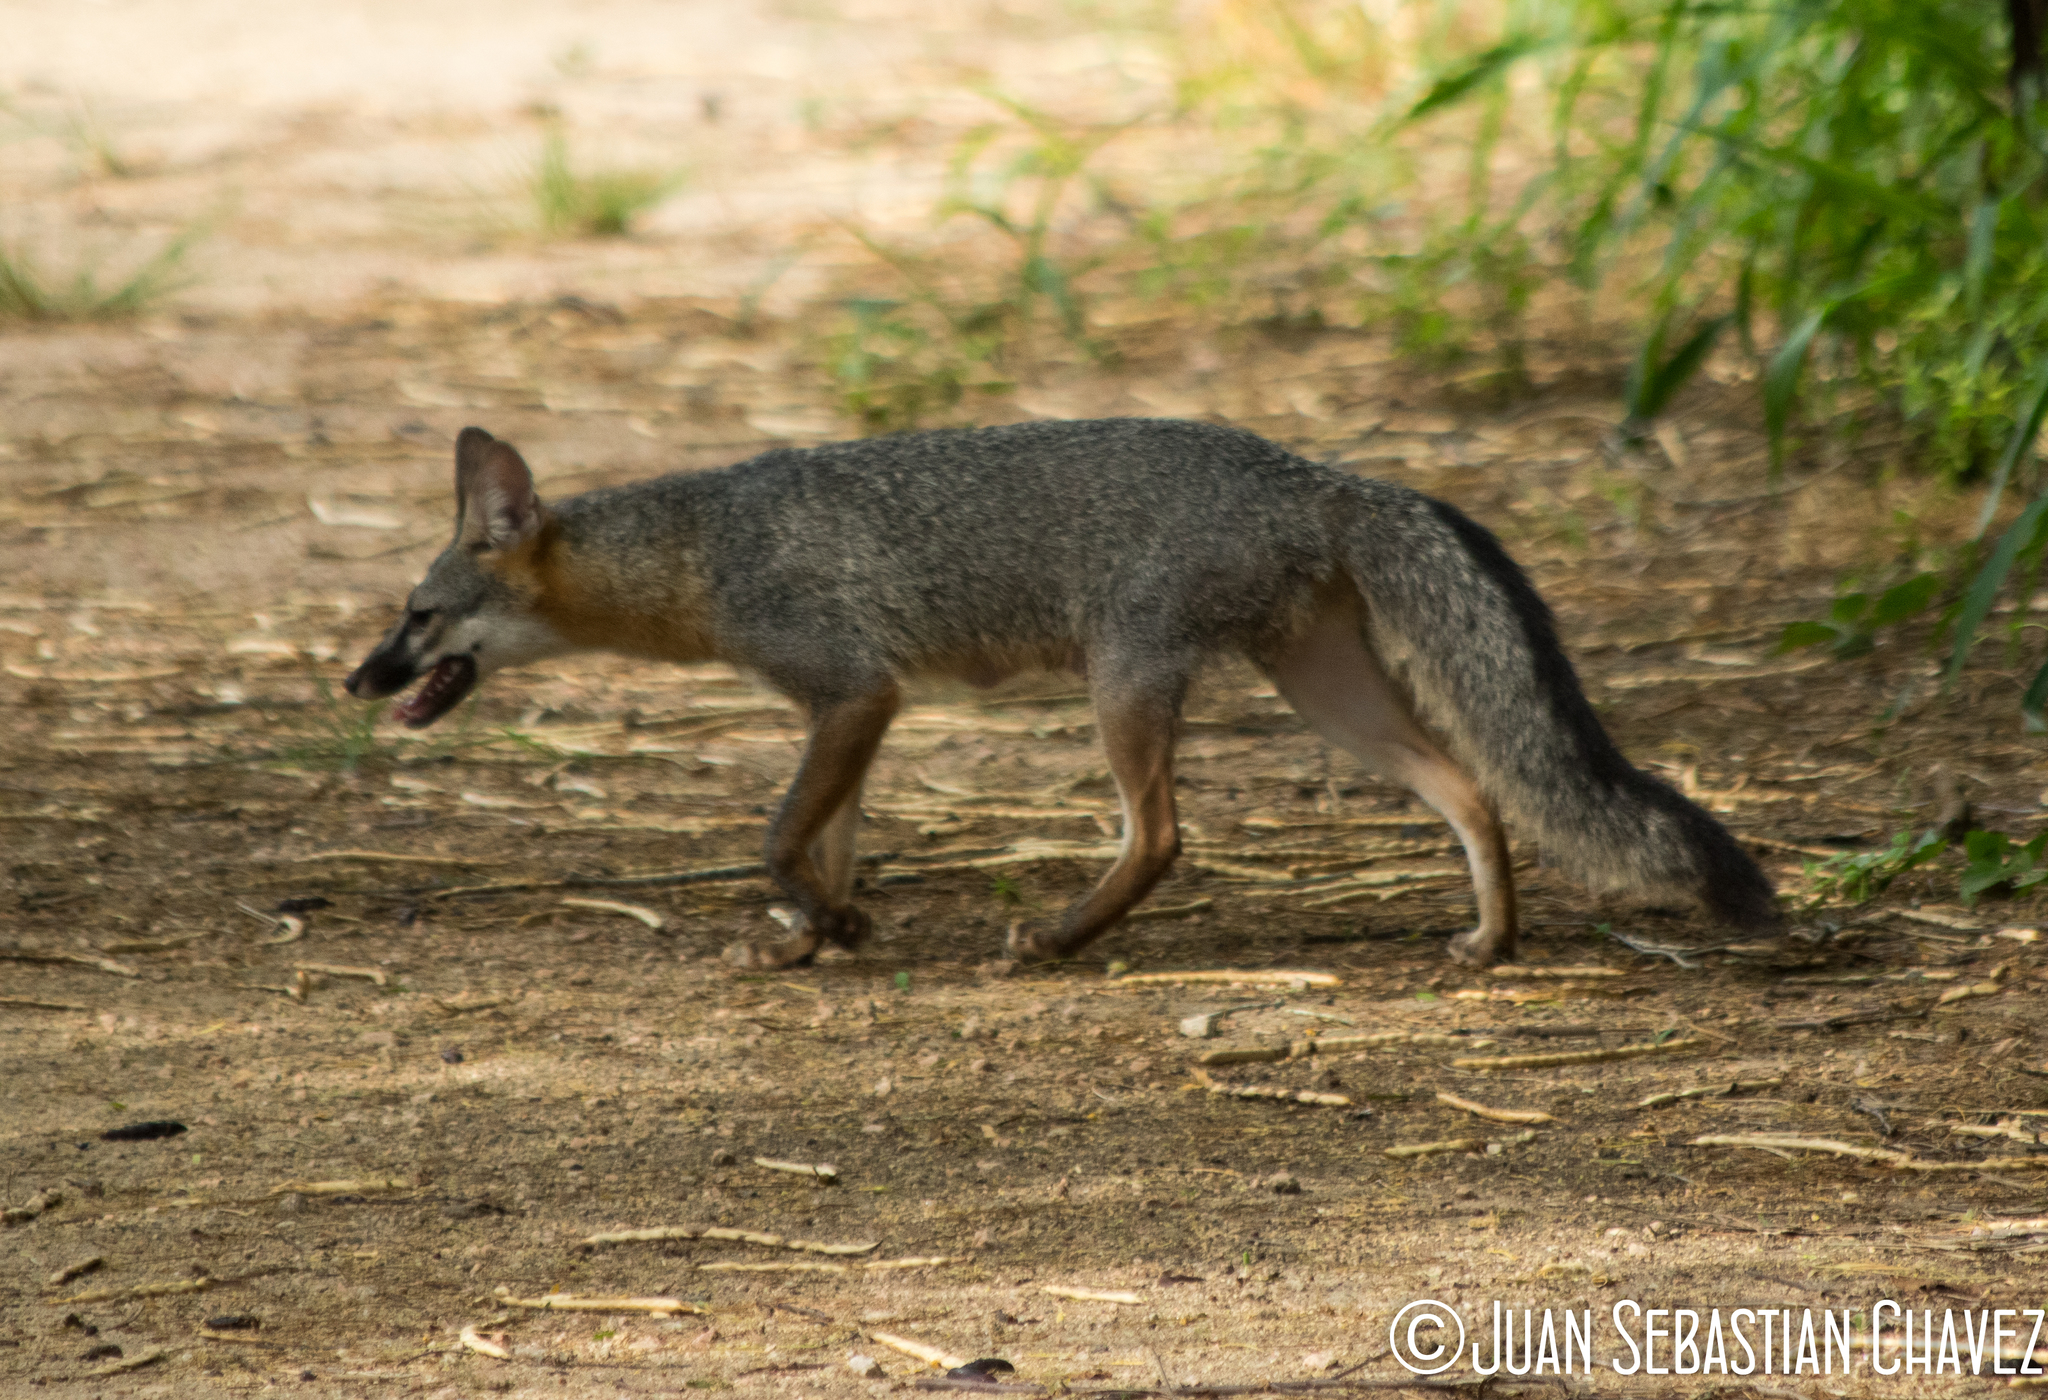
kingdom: Animalia
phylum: Chordata
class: Mammalia
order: Carnivora
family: Canidae
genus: Urocyon
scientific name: Urocyon cinereoargenteus
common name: Gray fox
